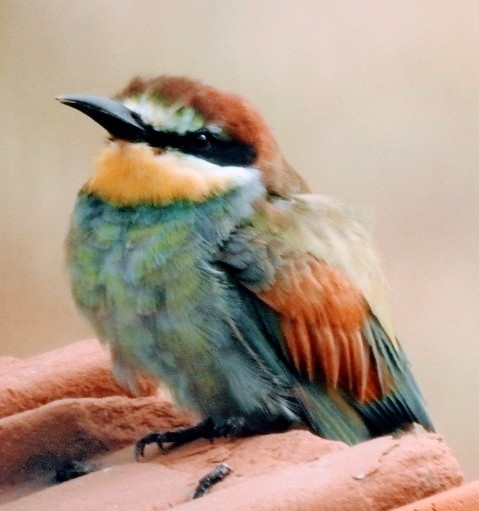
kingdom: Animalia
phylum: Chordata
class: Aves
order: Coraciiformes
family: Meropidae
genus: Merops
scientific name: Merops apiaster
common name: European bee-eater
